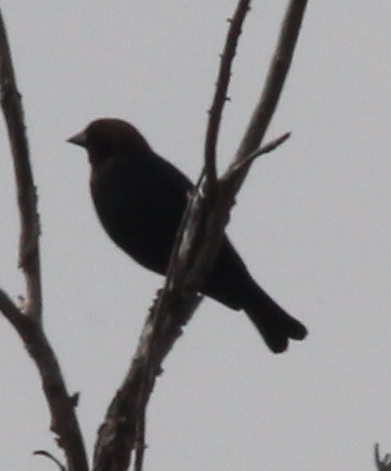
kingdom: Animalia
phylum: Chordata
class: Aves
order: Passeriformes
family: Icteridae
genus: Molothrus
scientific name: Molothrus ater
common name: Brown-headed cowbird
